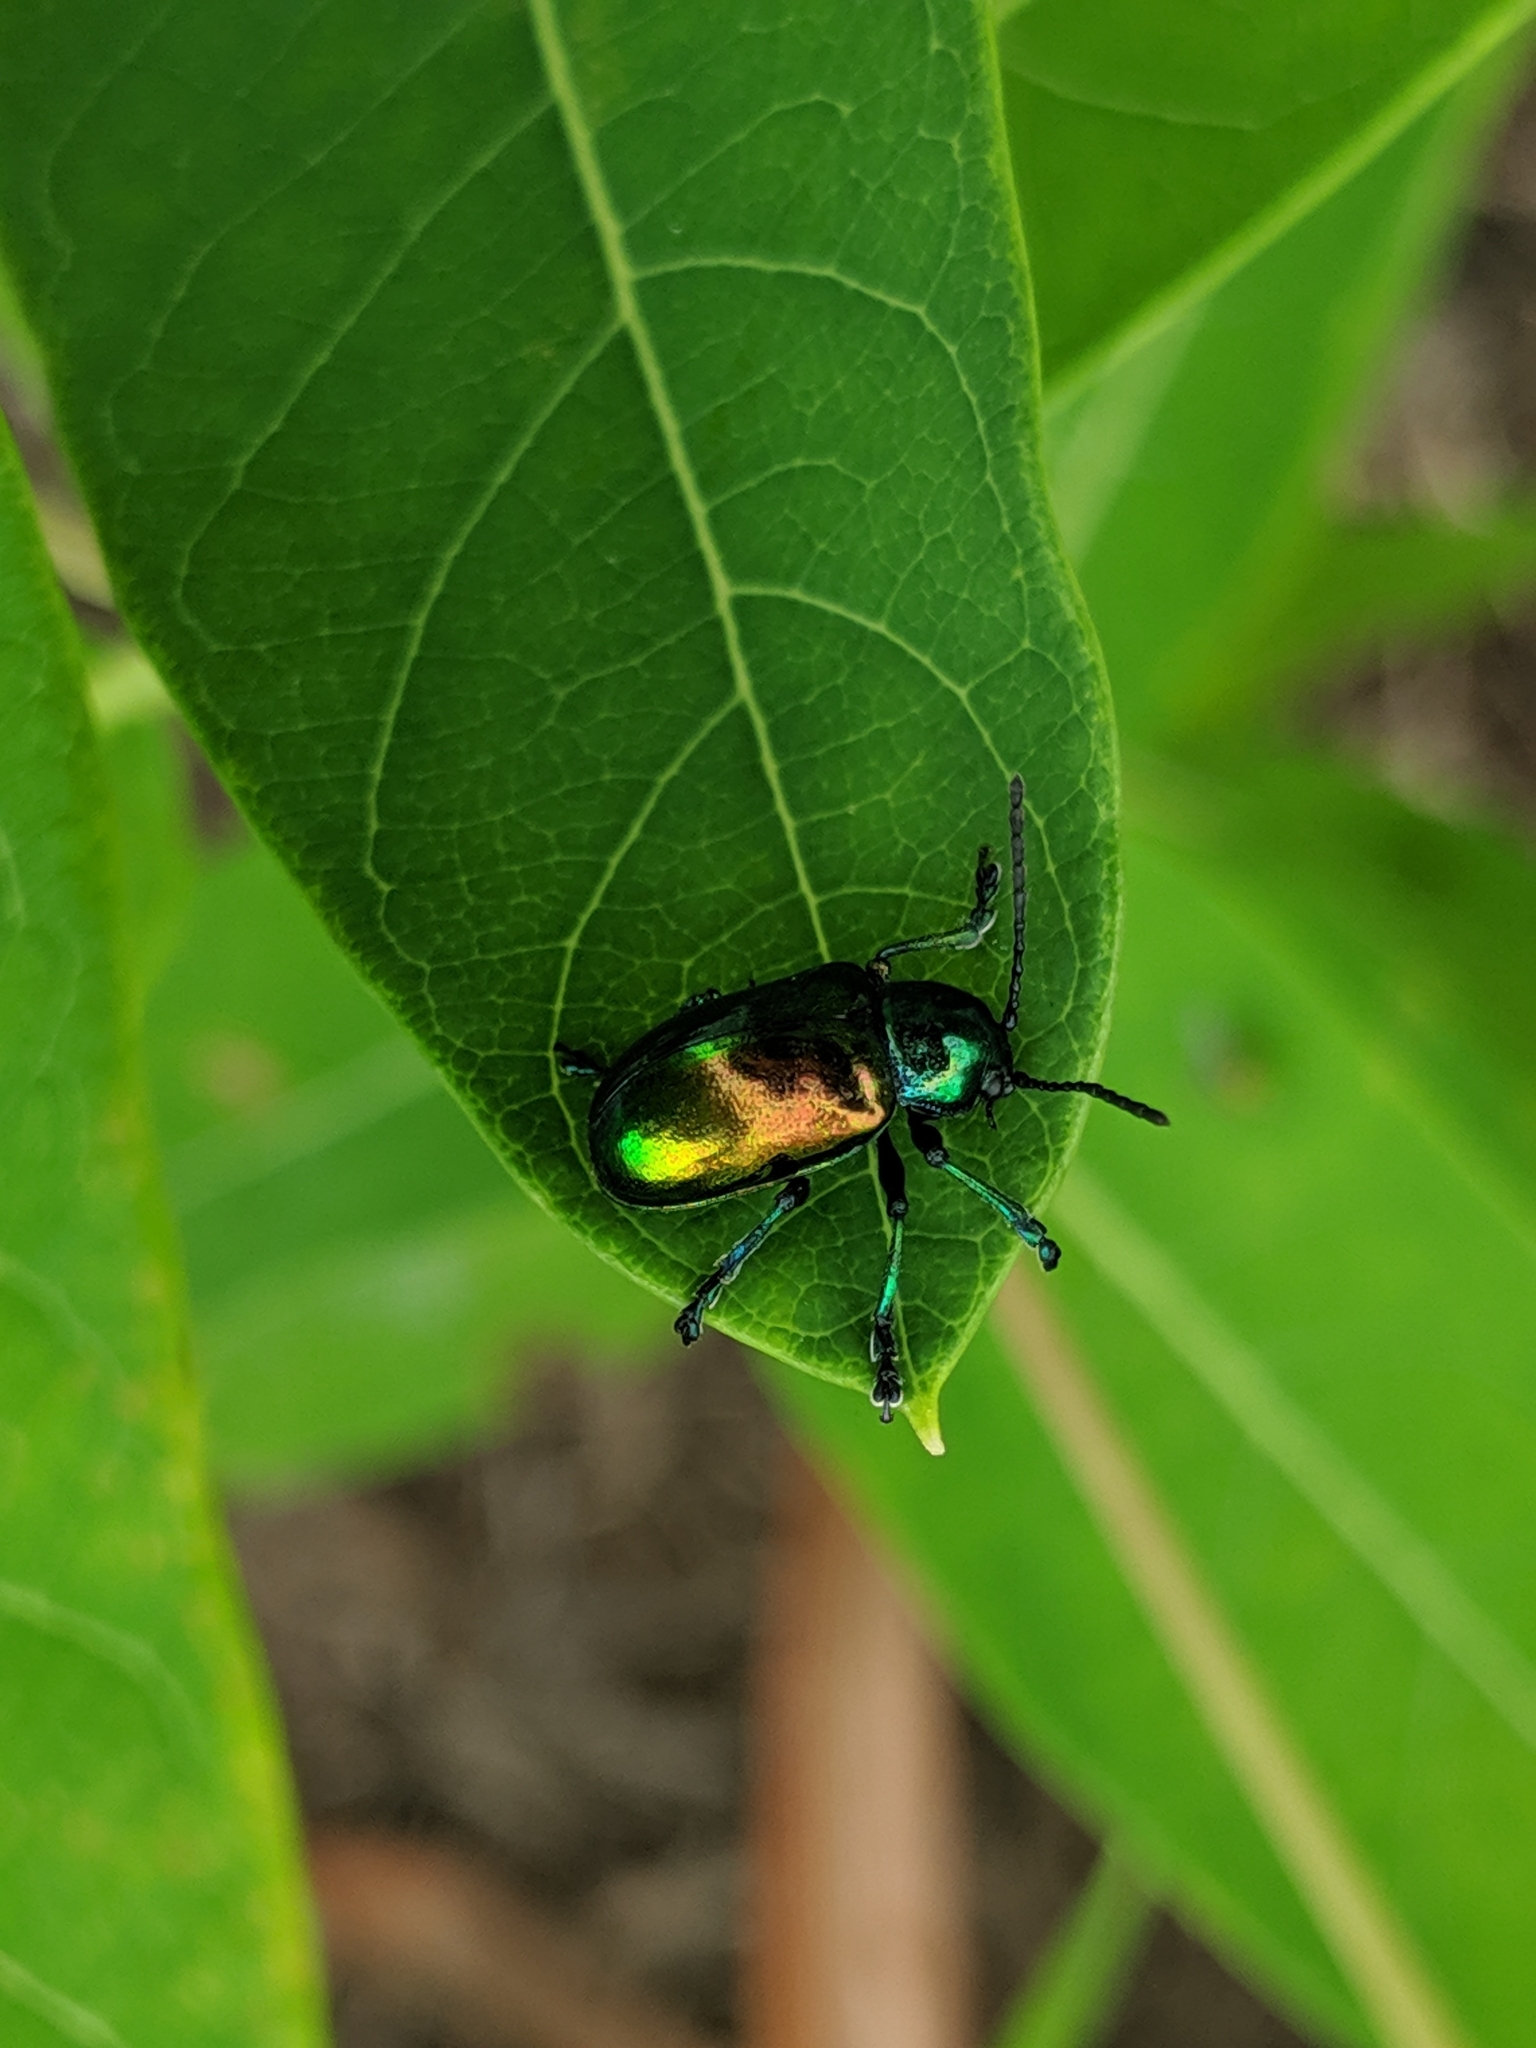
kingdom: Animalia
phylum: Arthropoda
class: Insecta
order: Coleoptera
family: Chrysomelidae
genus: Chrysochus
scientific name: Chrysochus auratus
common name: Dogbane leaf beetle
